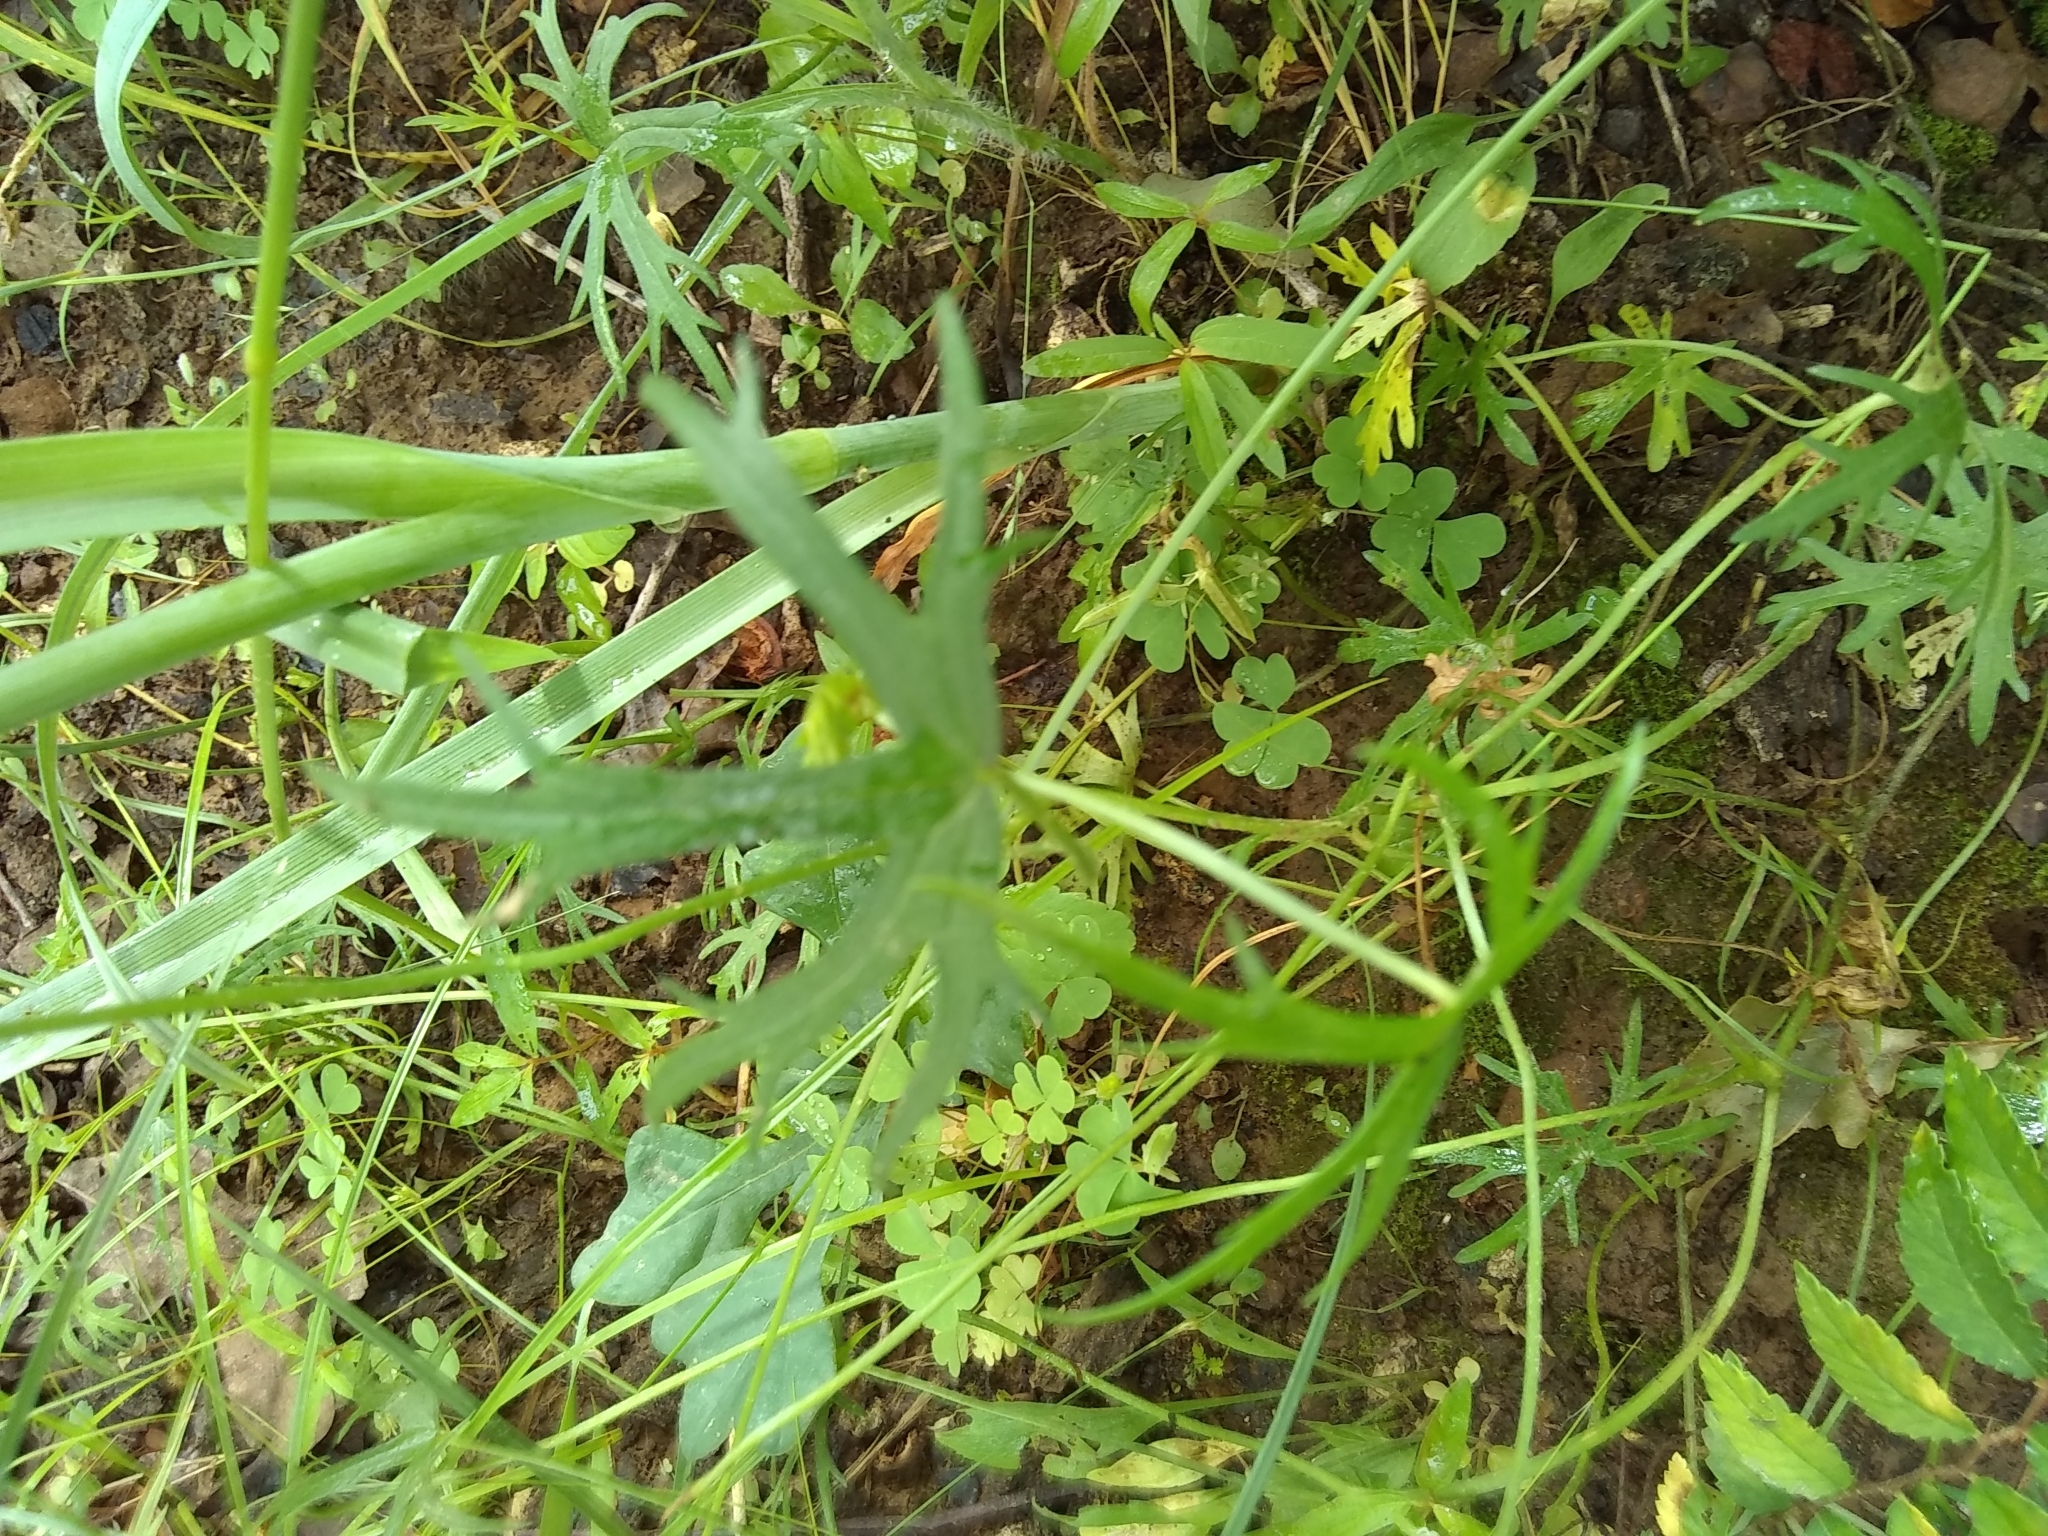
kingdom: Plantae
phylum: Tracheophyta
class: Magnoliopsida
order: Malvales
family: Malvaceae
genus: Callirhoe
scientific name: Callirhoe involucrata
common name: Purple poppy-mallow
